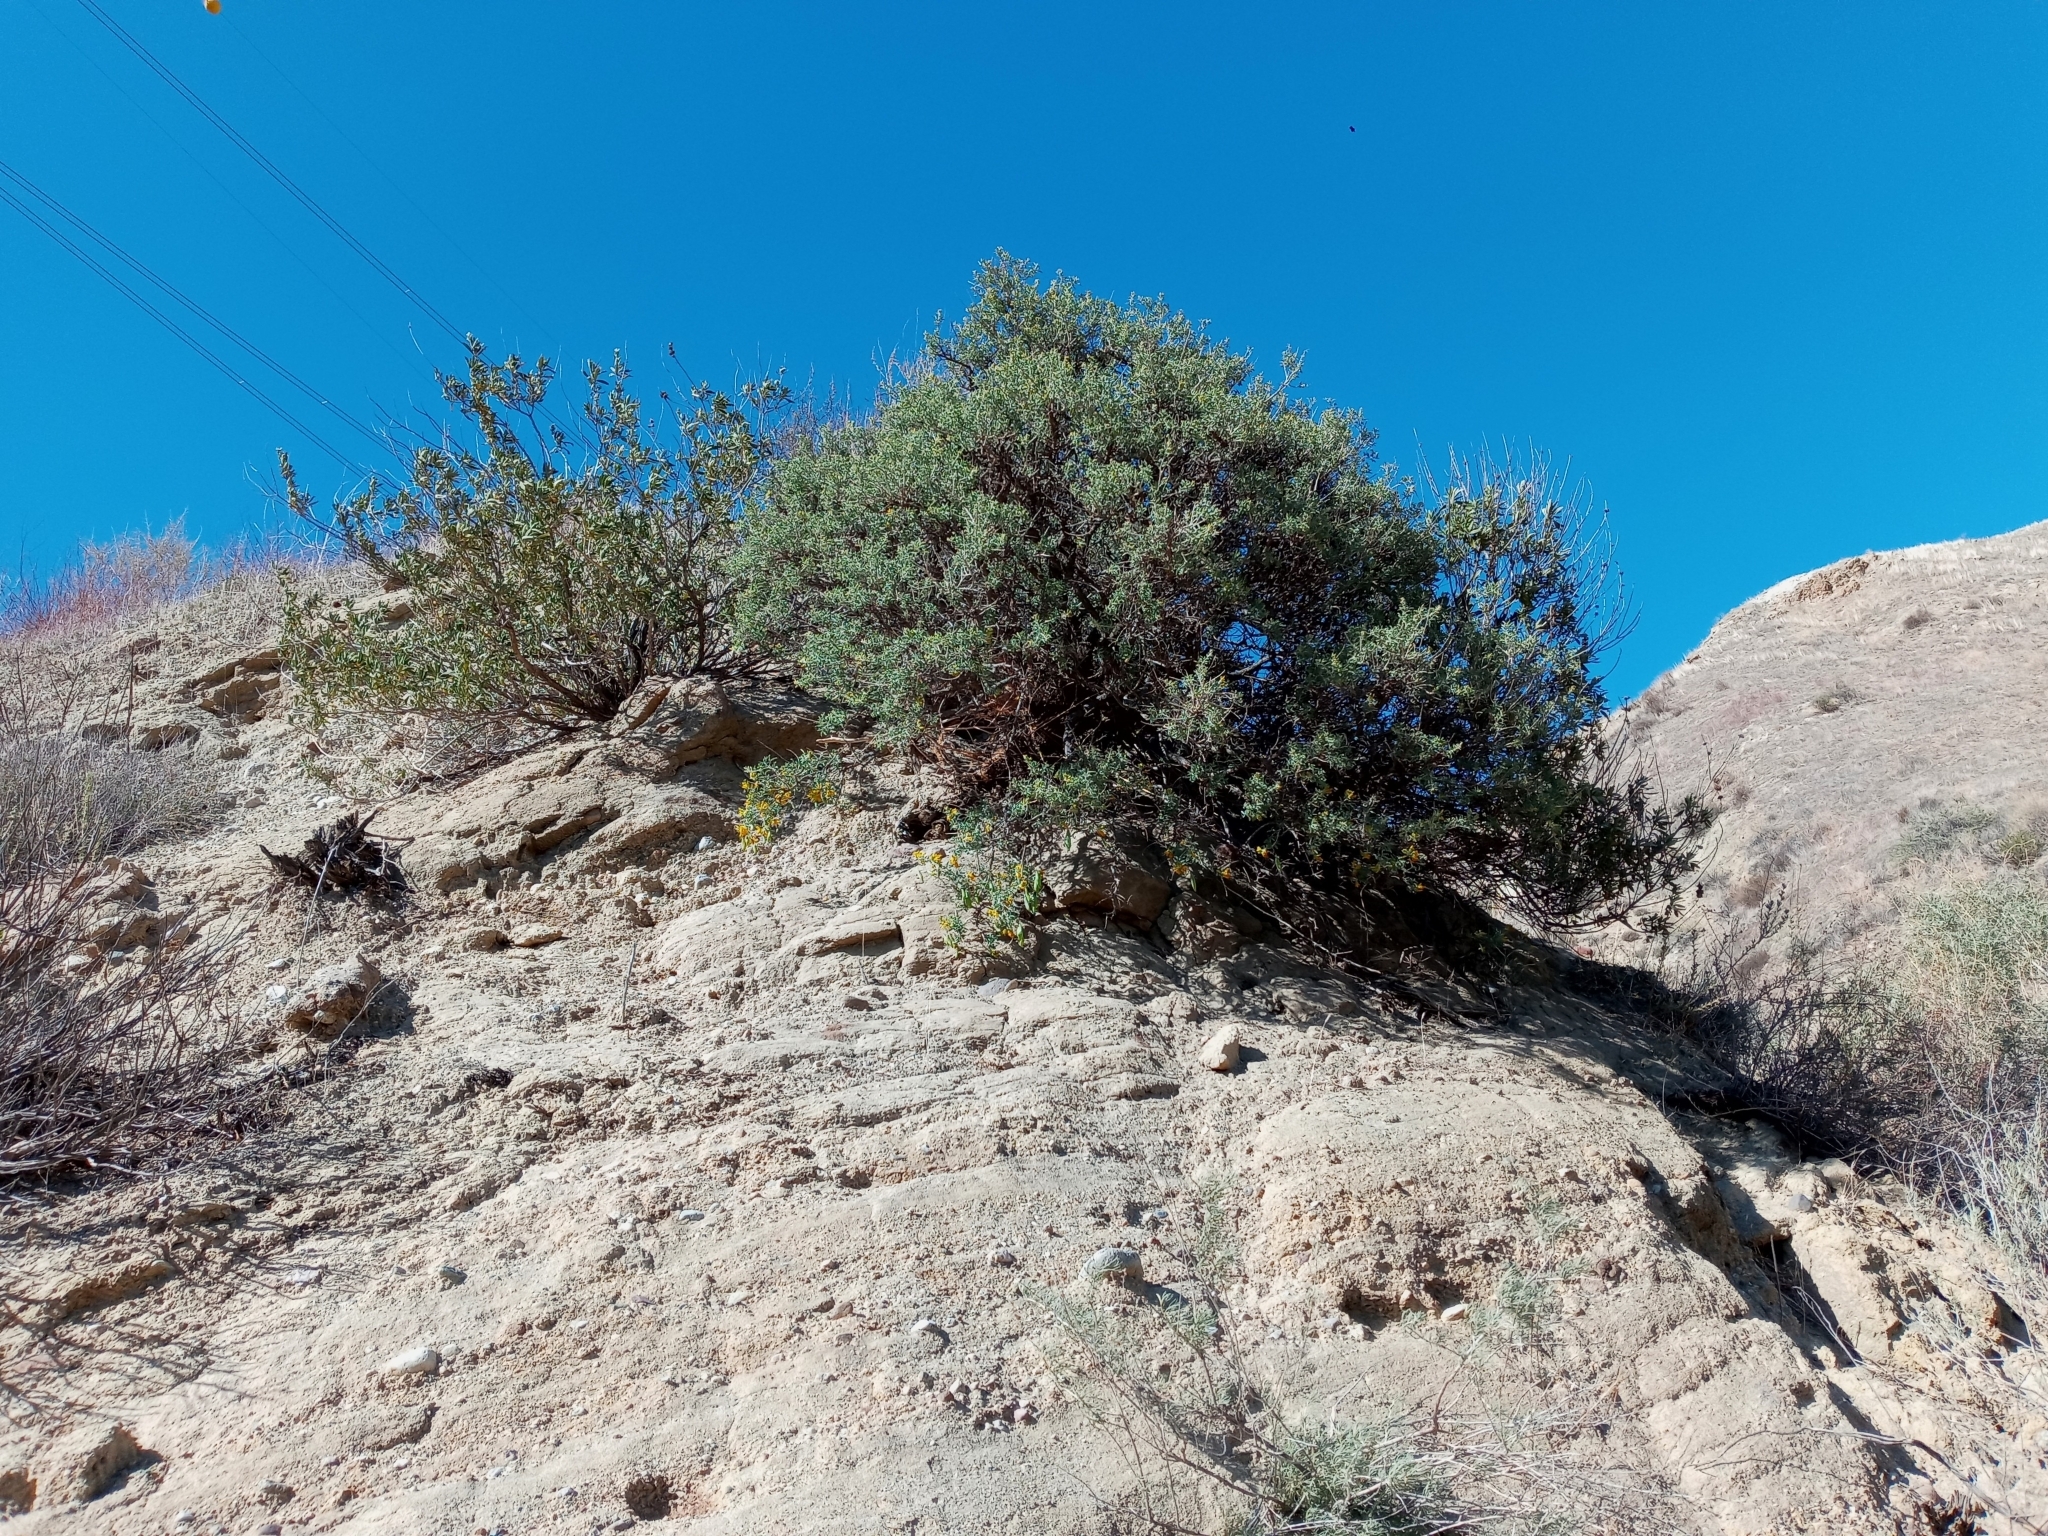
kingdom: Plantae
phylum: Tracheophyta
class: Magnoliopsida
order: Brassicales
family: Cleomaceae
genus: Cleomella
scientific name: Cleomella arborea
